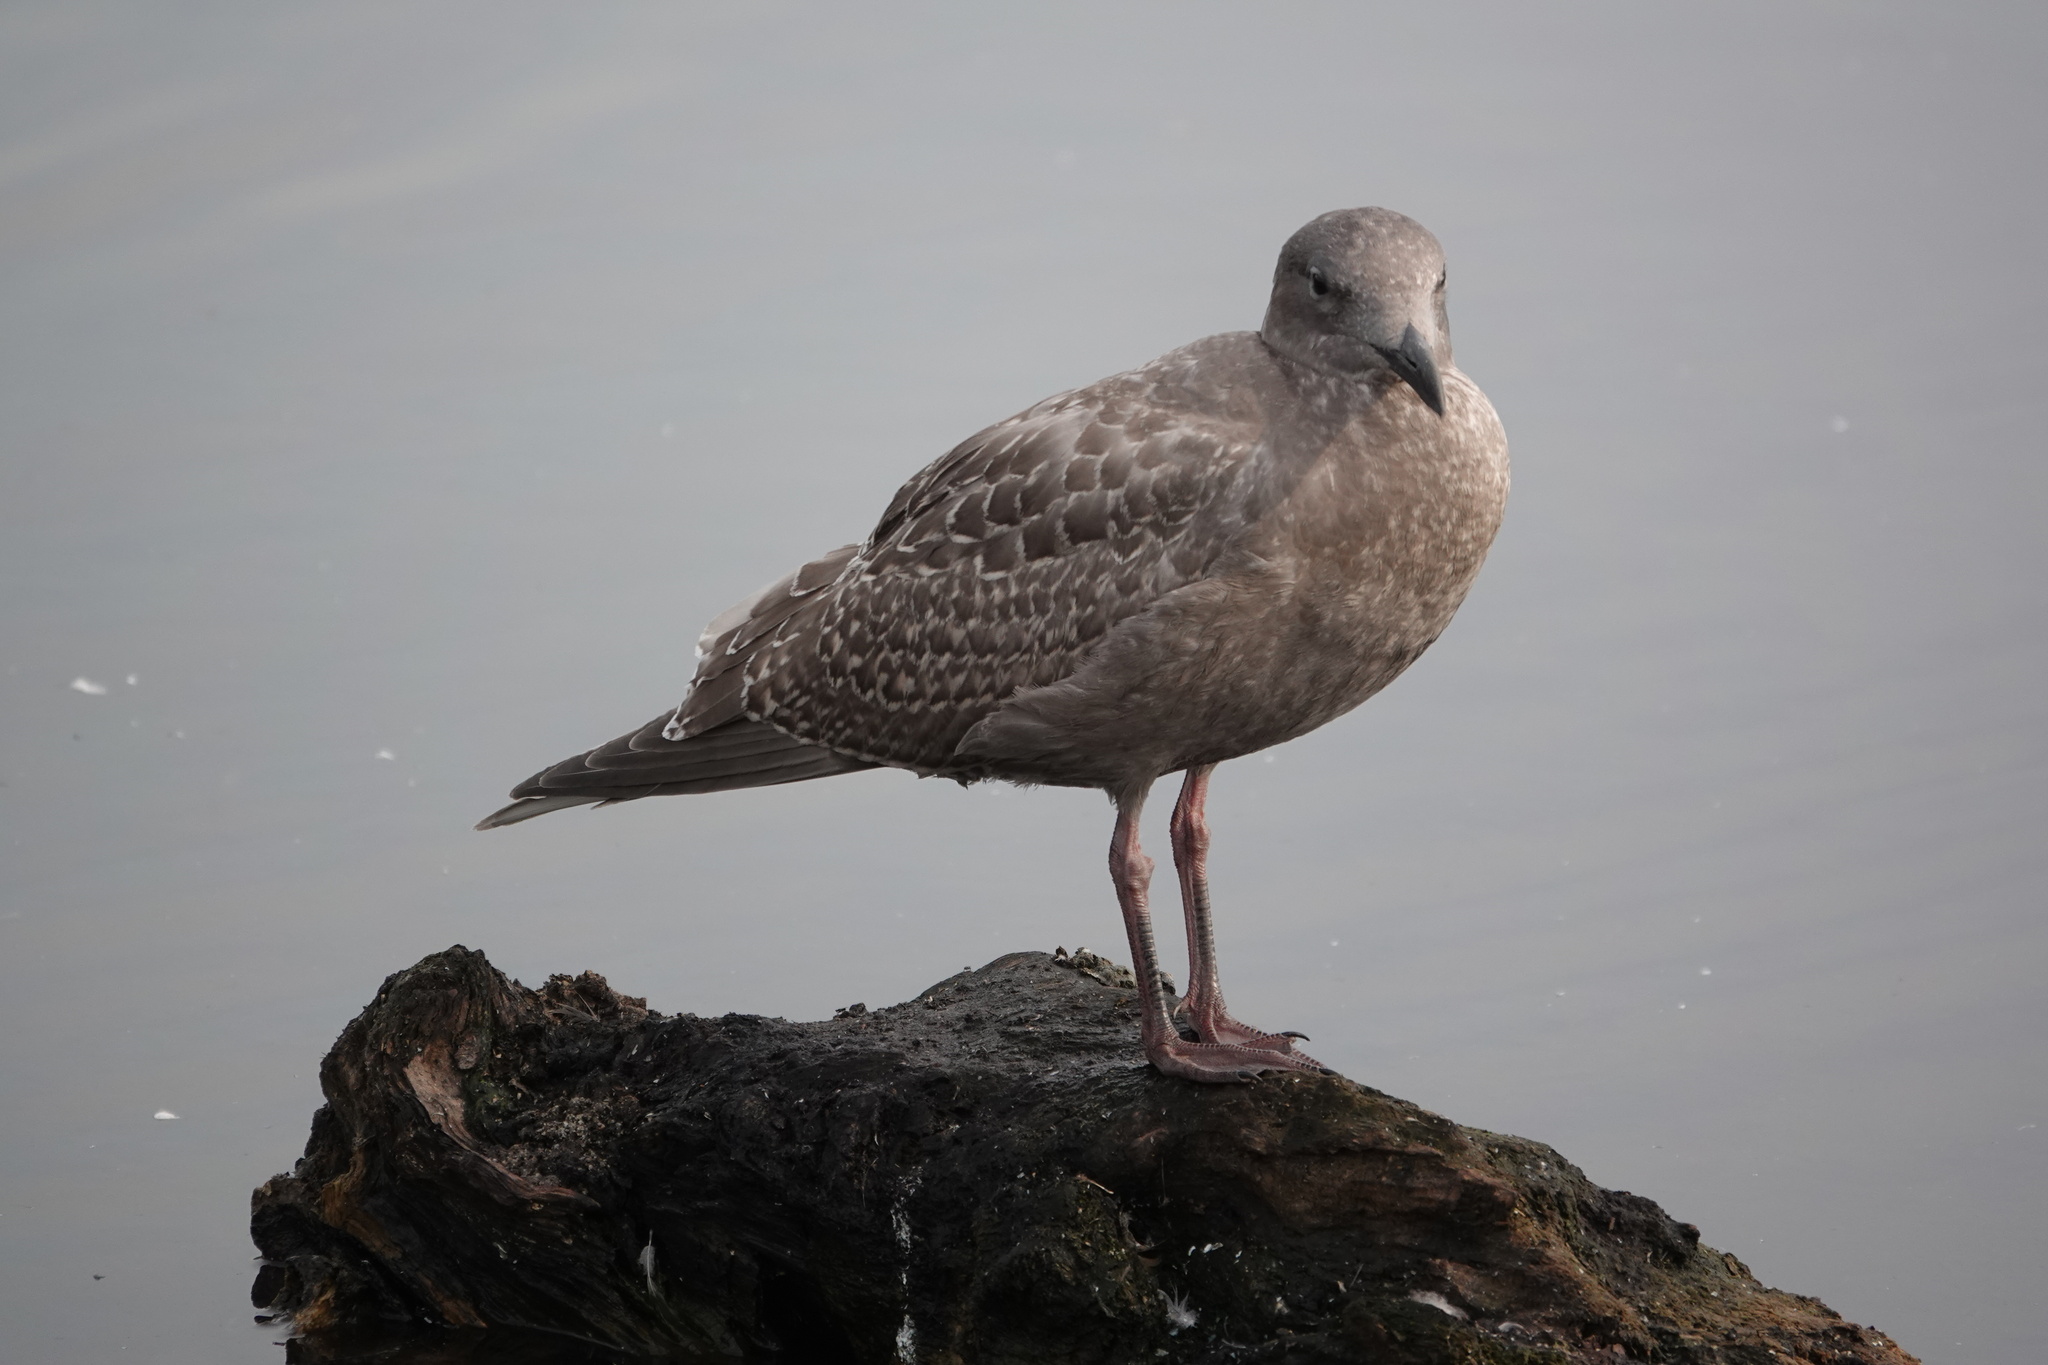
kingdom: Animalia
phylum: Chordata
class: Aves
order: Charadriiformes
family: Laridae
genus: Larus
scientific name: Larus glaucescens
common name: Glaucous-winged gull
